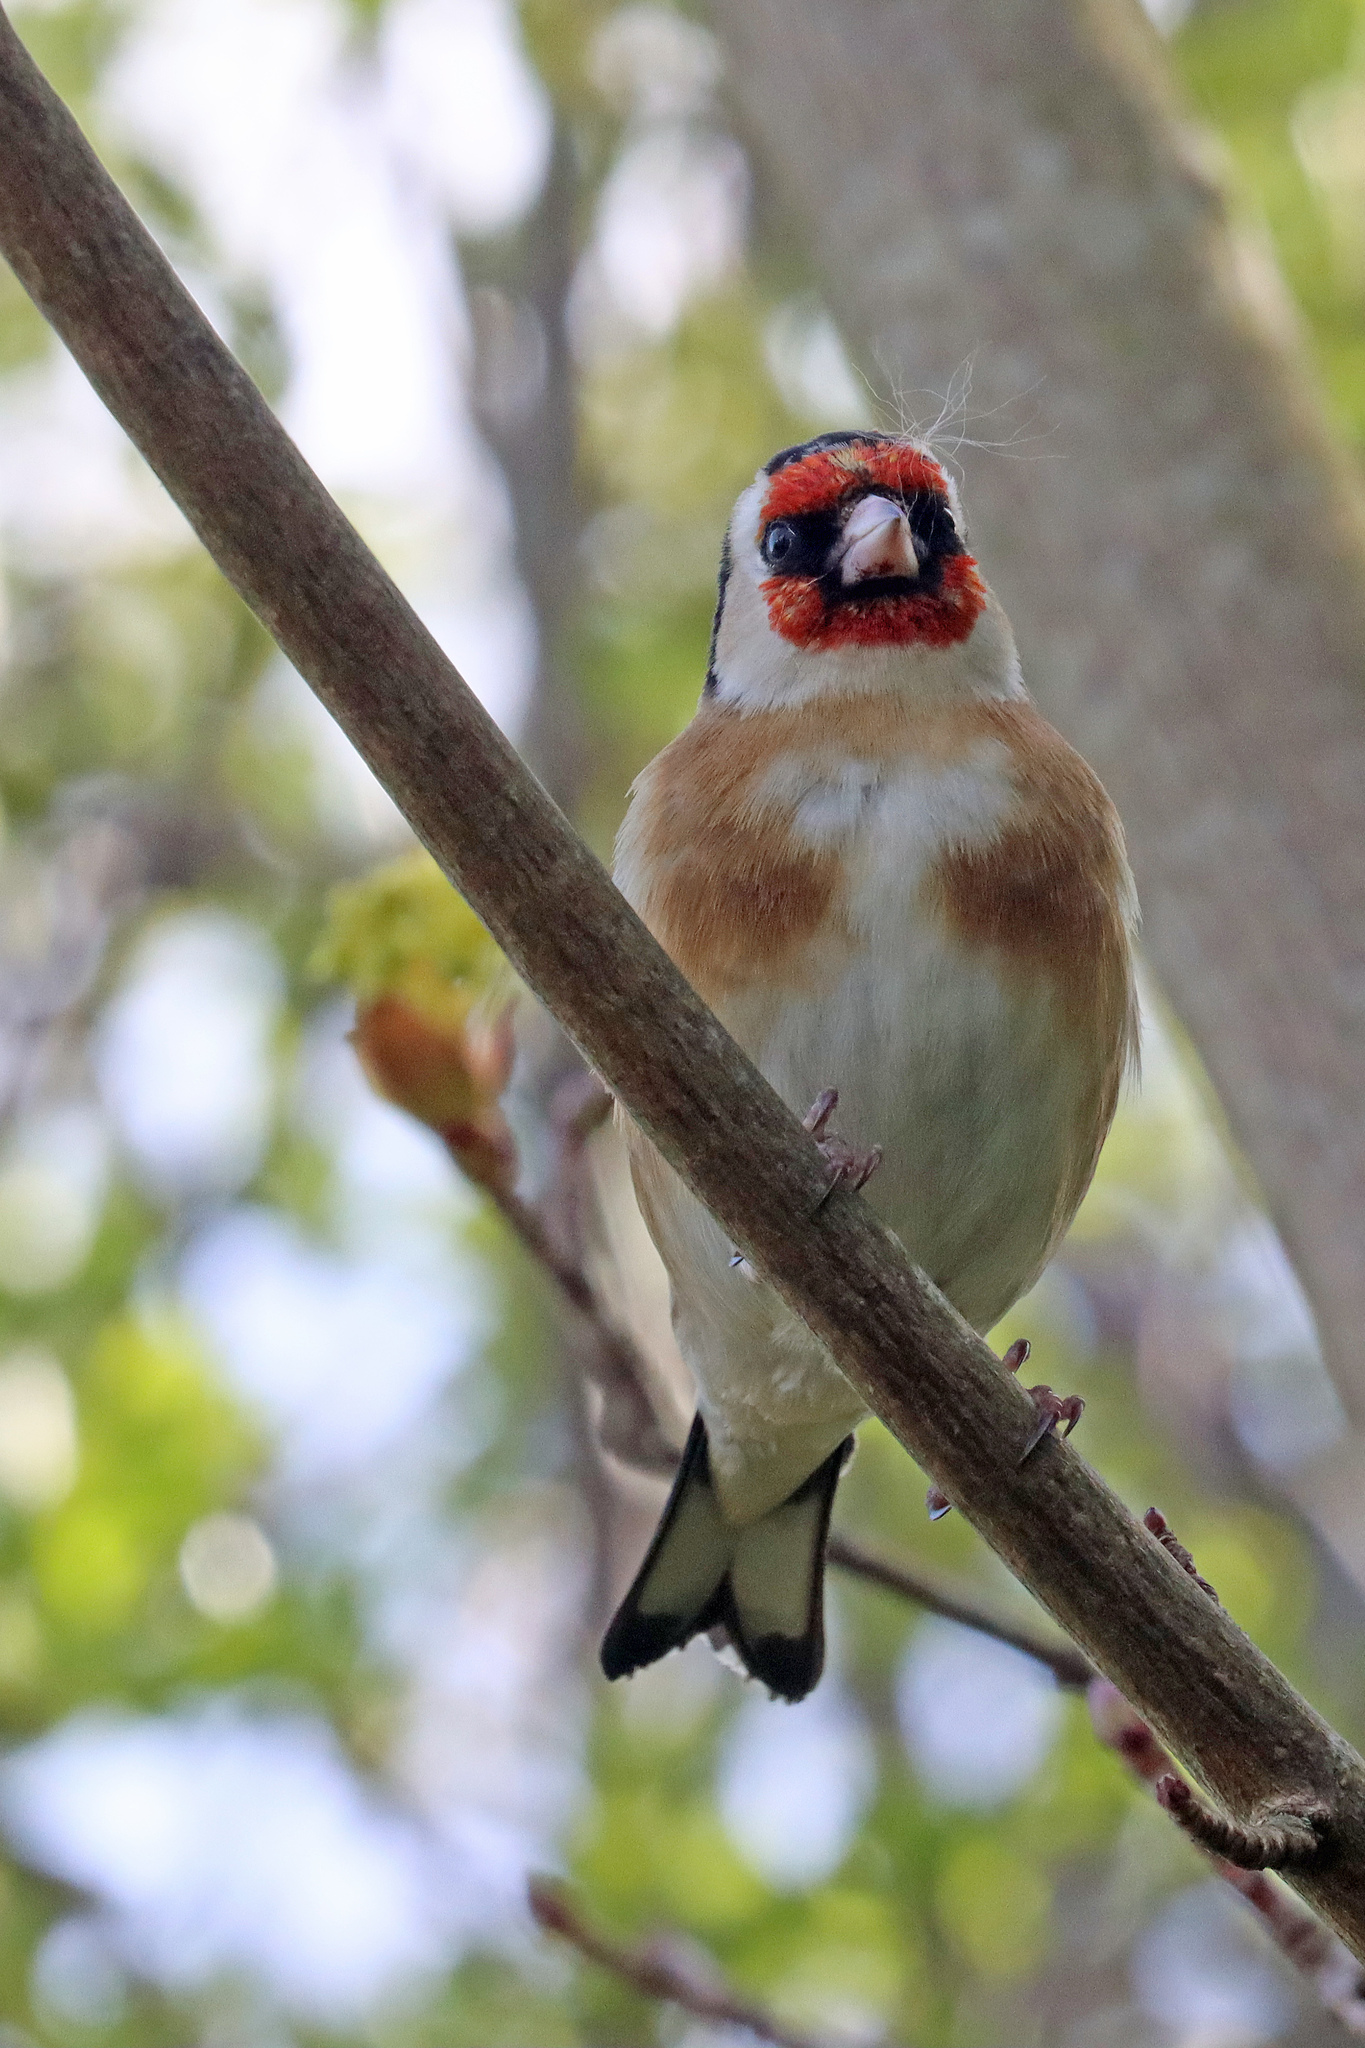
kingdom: Animalia
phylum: Chordata
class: Aves
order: Passeriformes
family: Fringillidae
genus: Carduelis
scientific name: Carduelis carduelis
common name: European goldfinch
